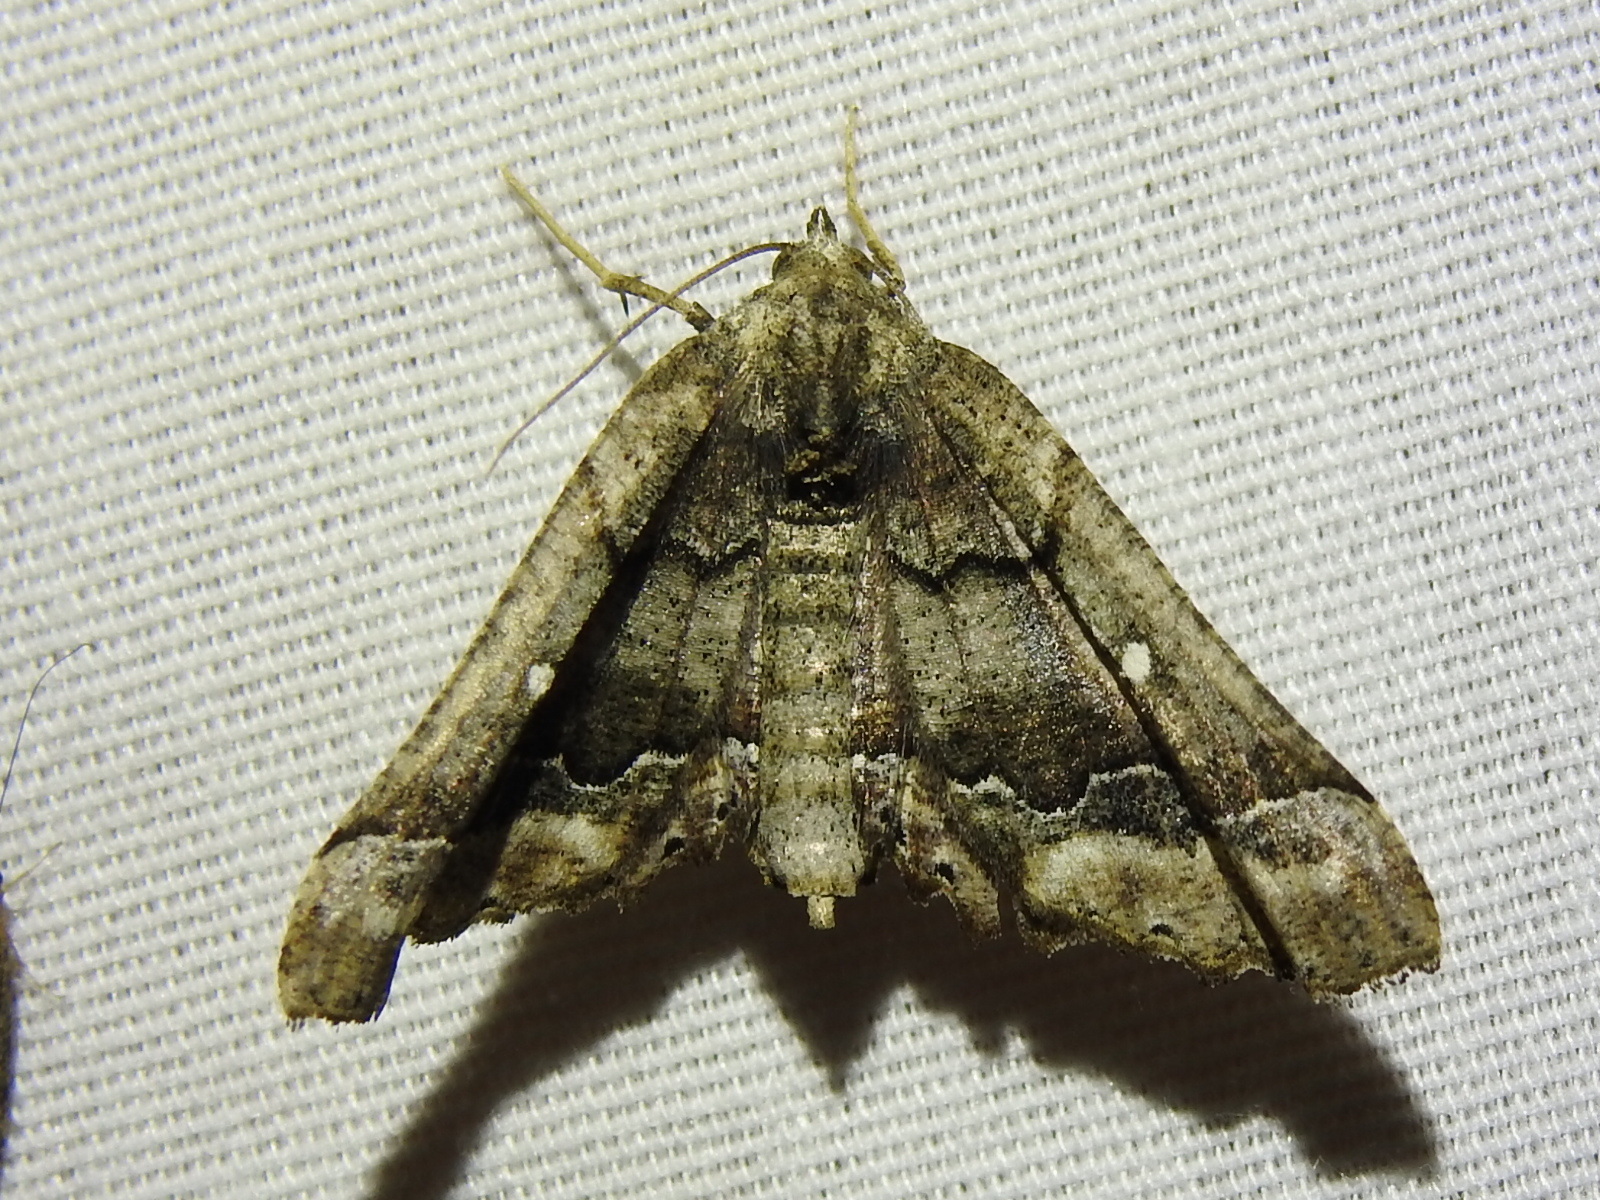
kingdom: Animalia
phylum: Arthropoda
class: Insecta
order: Lepidoptera
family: Geometridae
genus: Pero
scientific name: Pero meskaria
